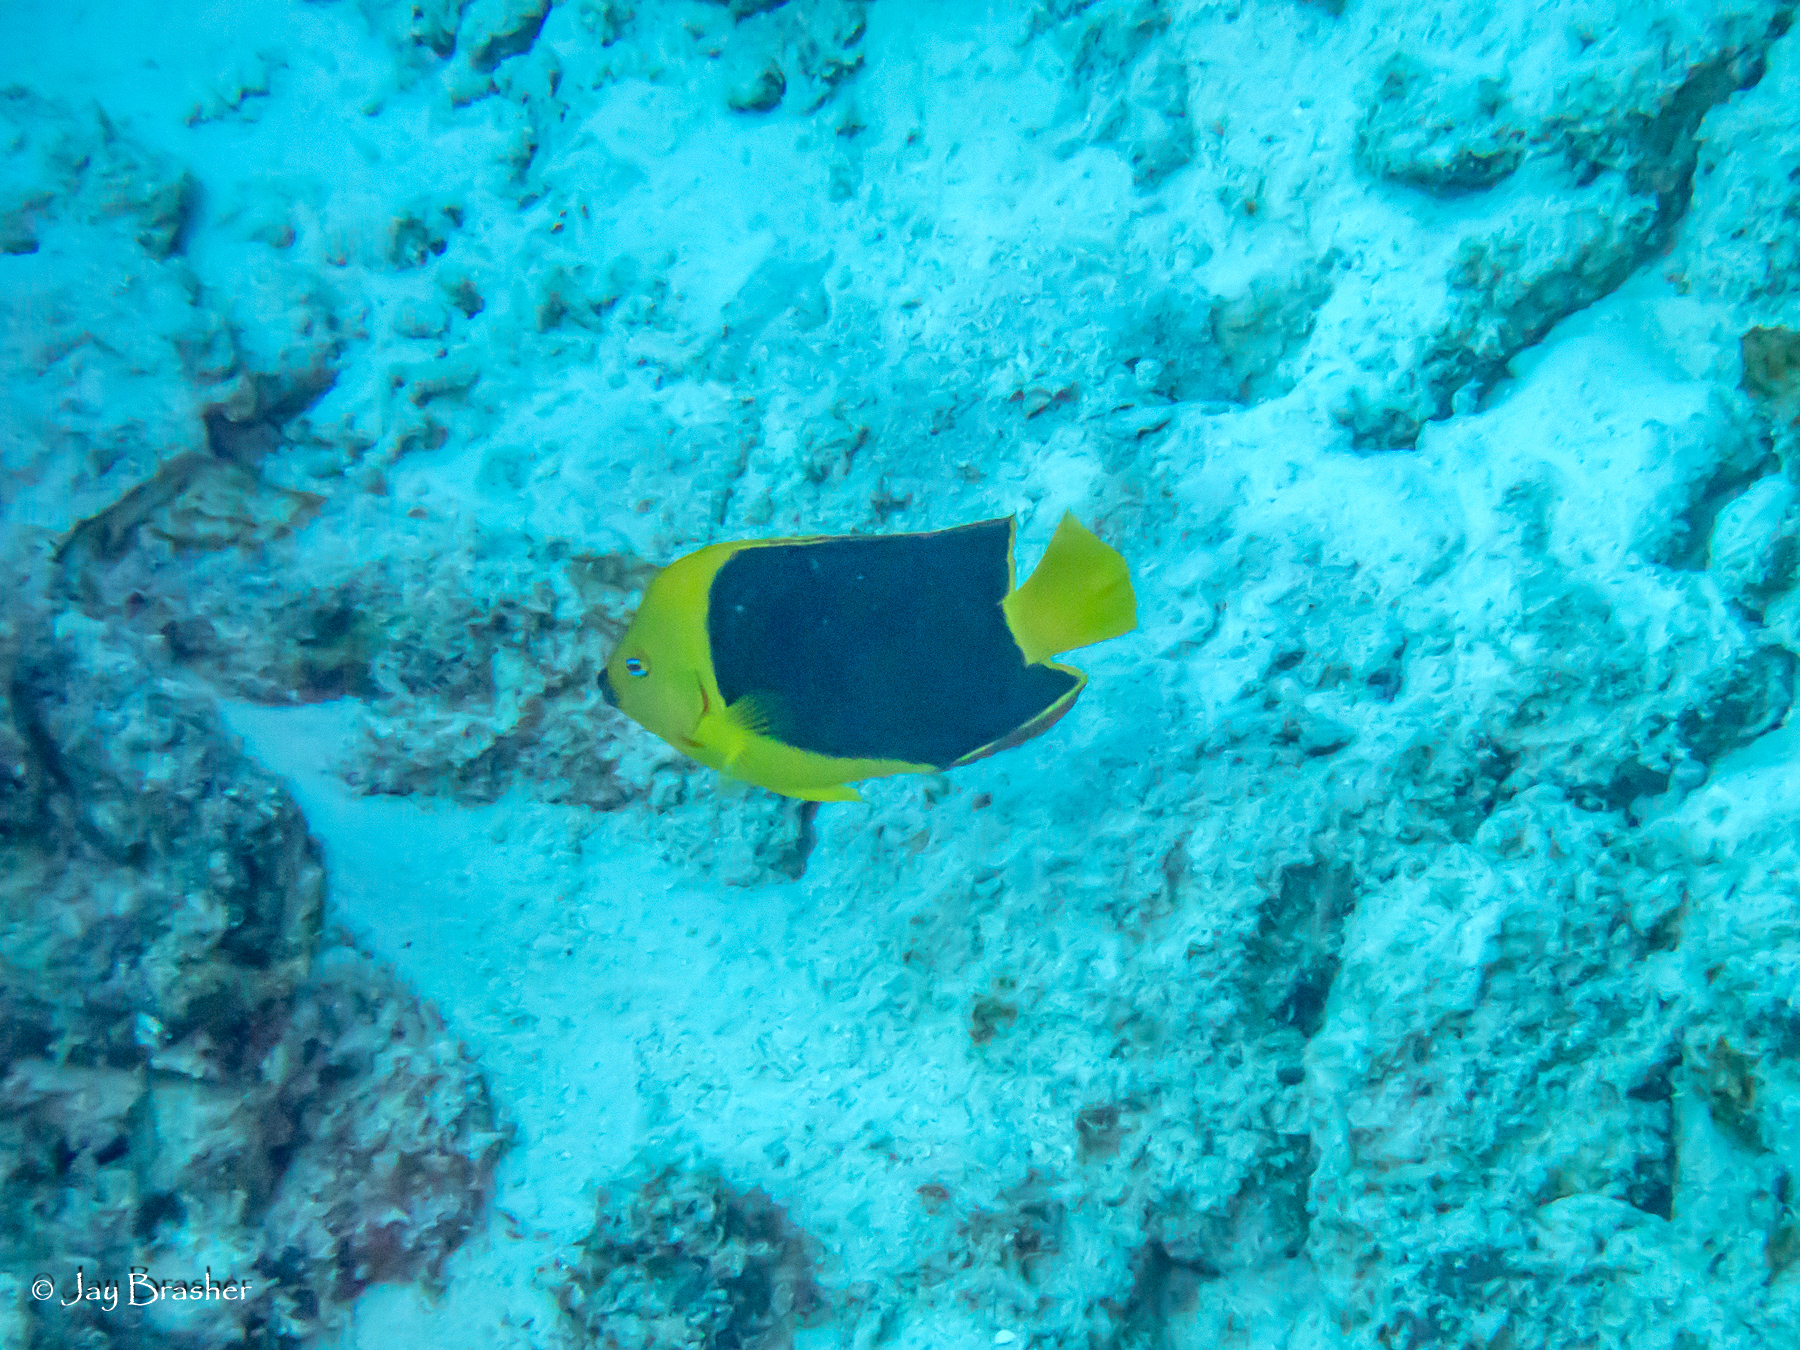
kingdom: Animalia
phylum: Chordata
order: Perciformes
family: Pomacanthidae
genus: Holacanthus
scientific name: Holacanthus tricolor
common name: Rock beauty
